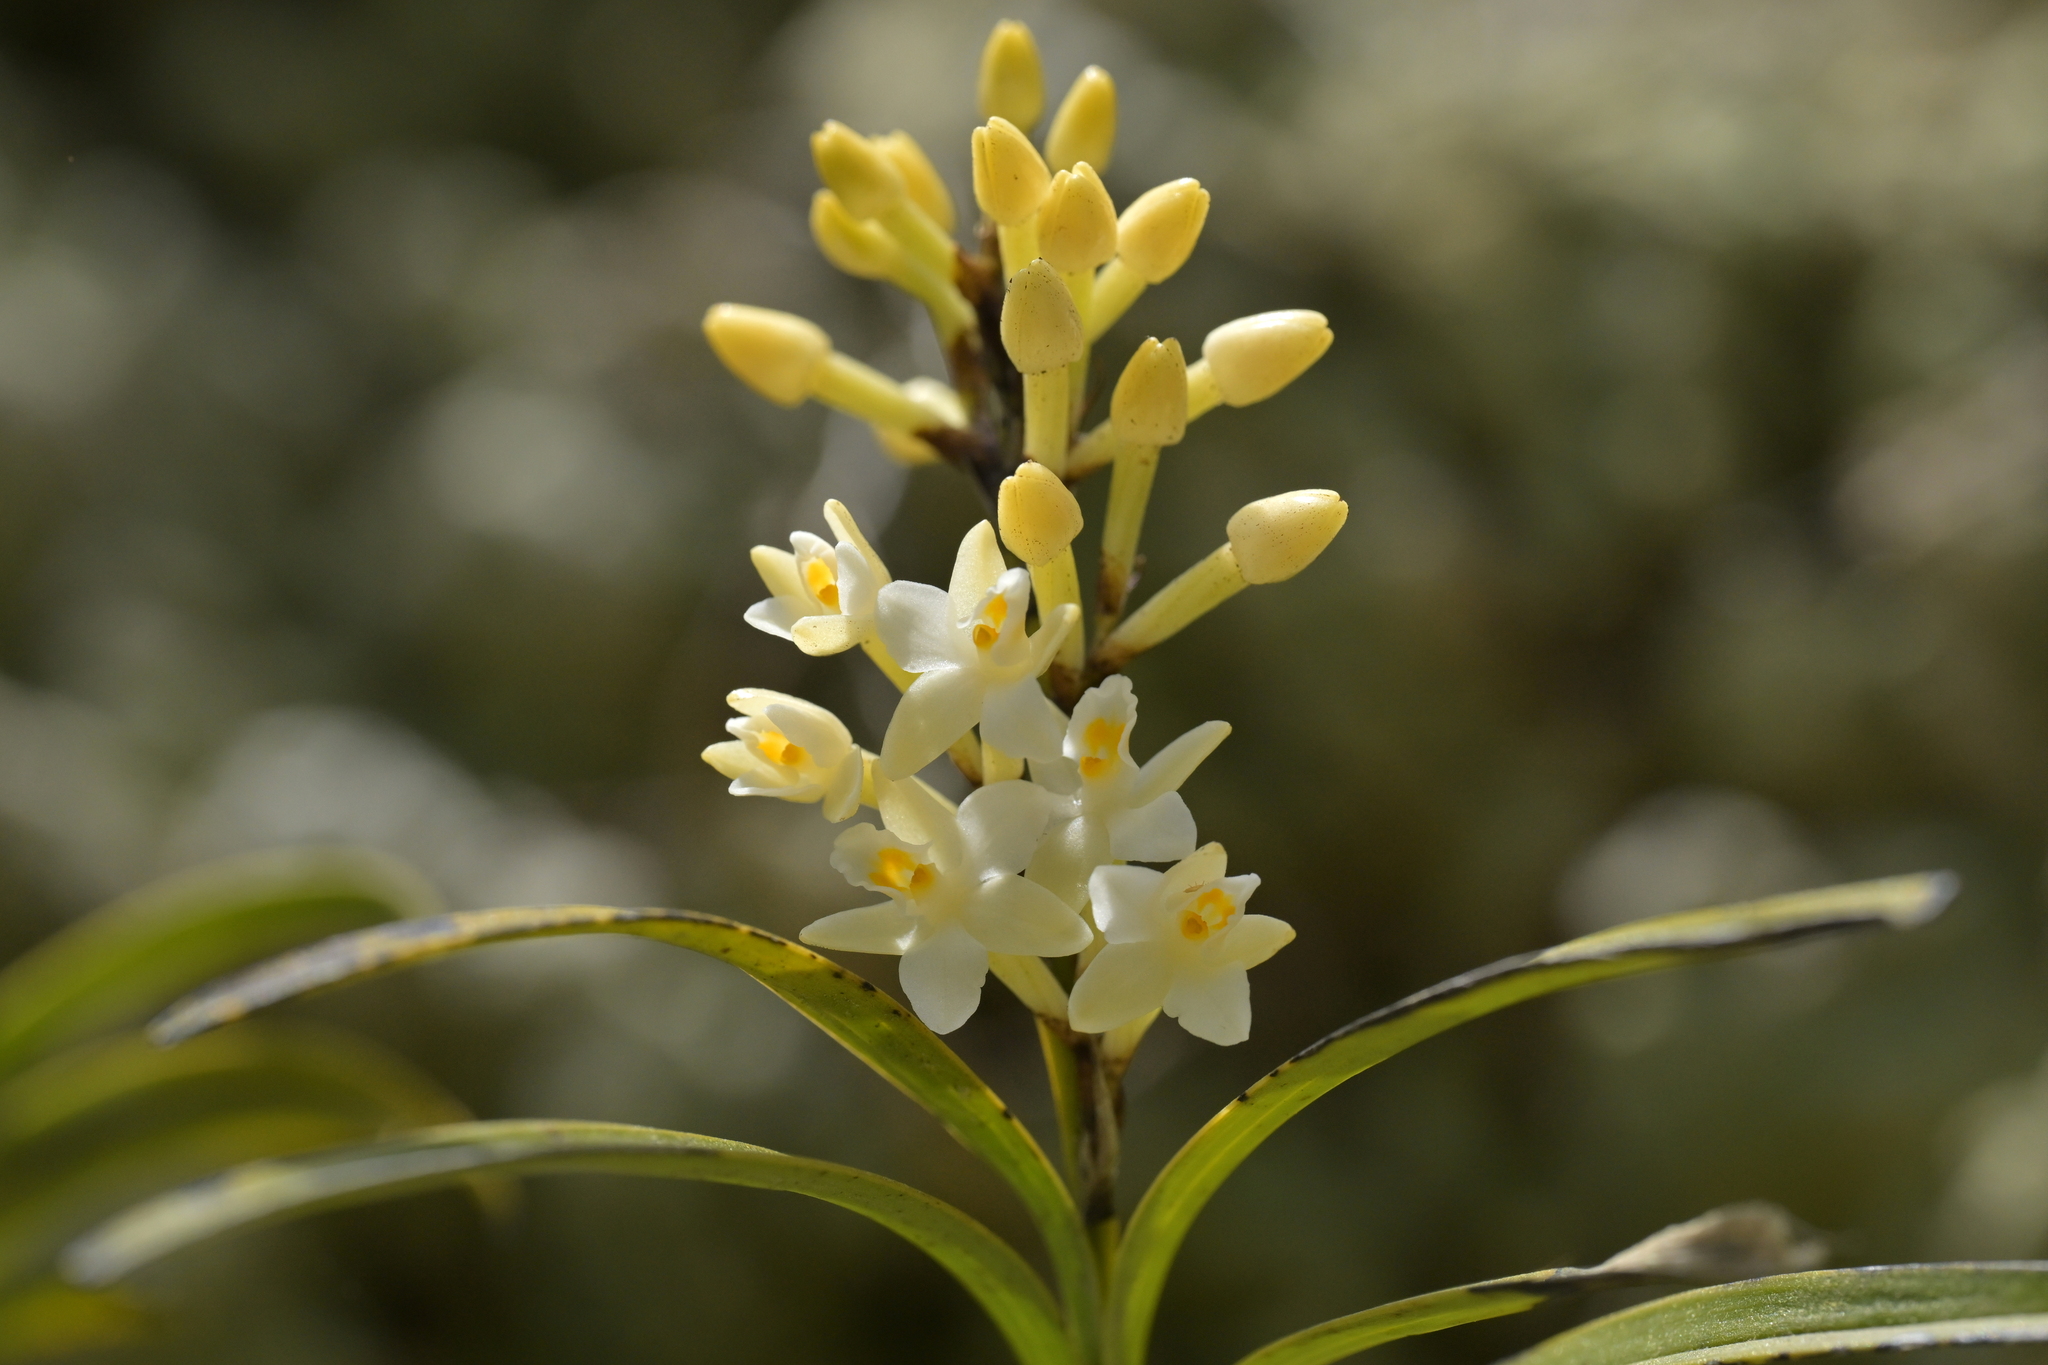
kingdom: Plantae
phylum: Tracheophyta
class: Liliopsida
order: Asparagales
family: Orchidaceae
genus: Earina
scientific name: Earina autumnalis
